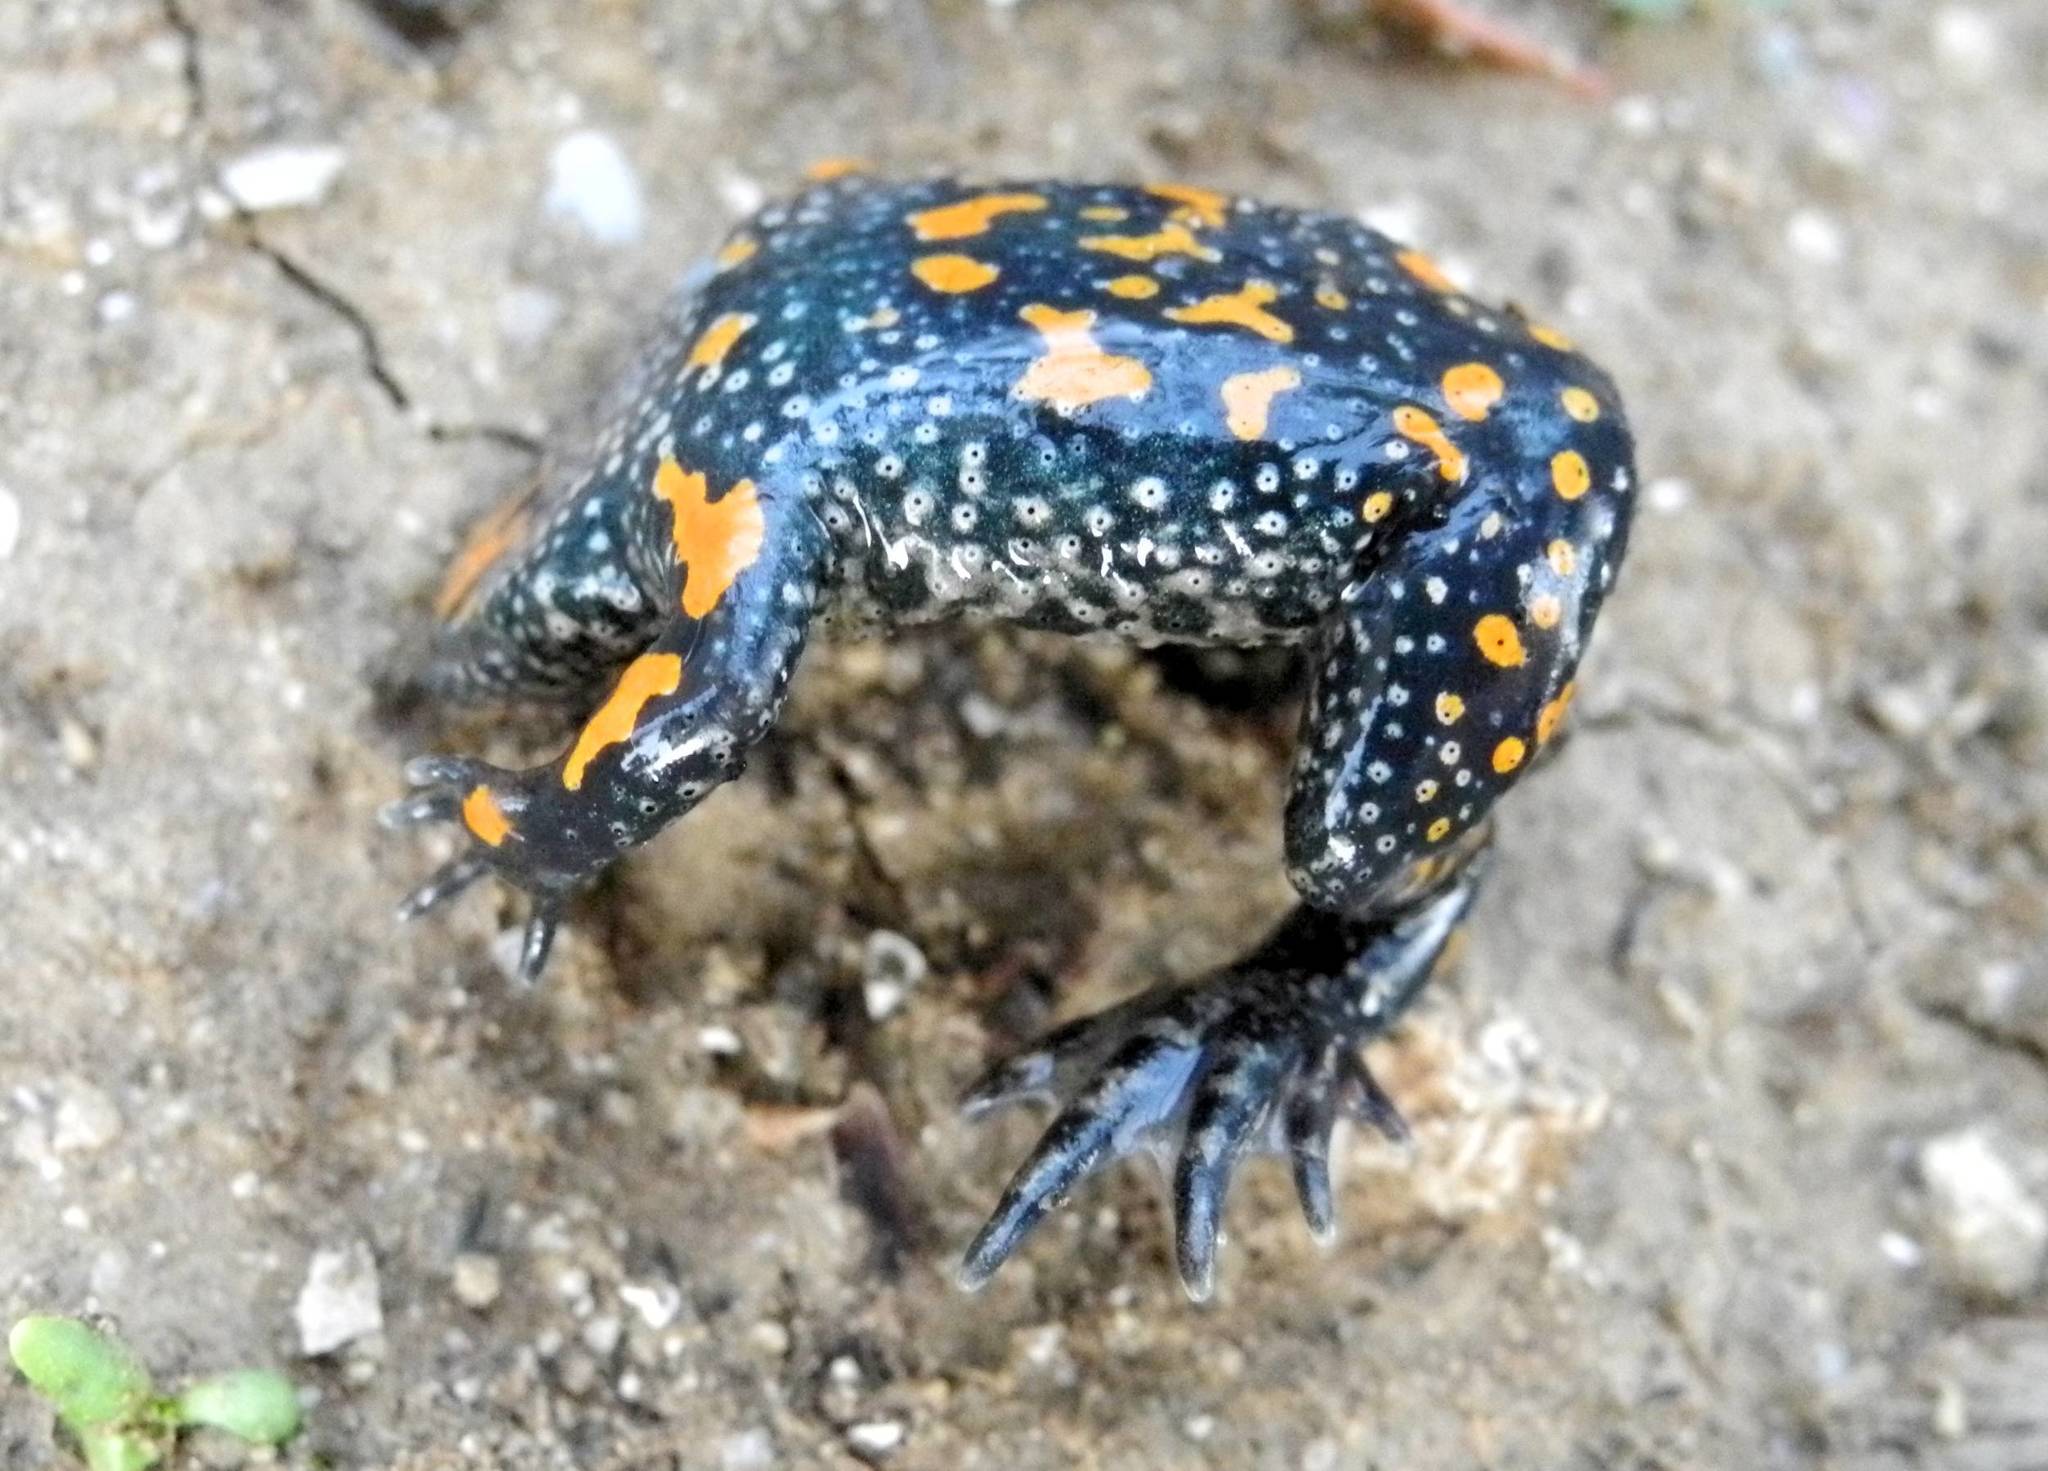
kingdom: Animalia
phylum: Chordata
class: Amphibia
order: Anura
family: Bombinatoridae
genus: Bombina
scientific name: Bombina bombina
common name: Fire-bellied toad
